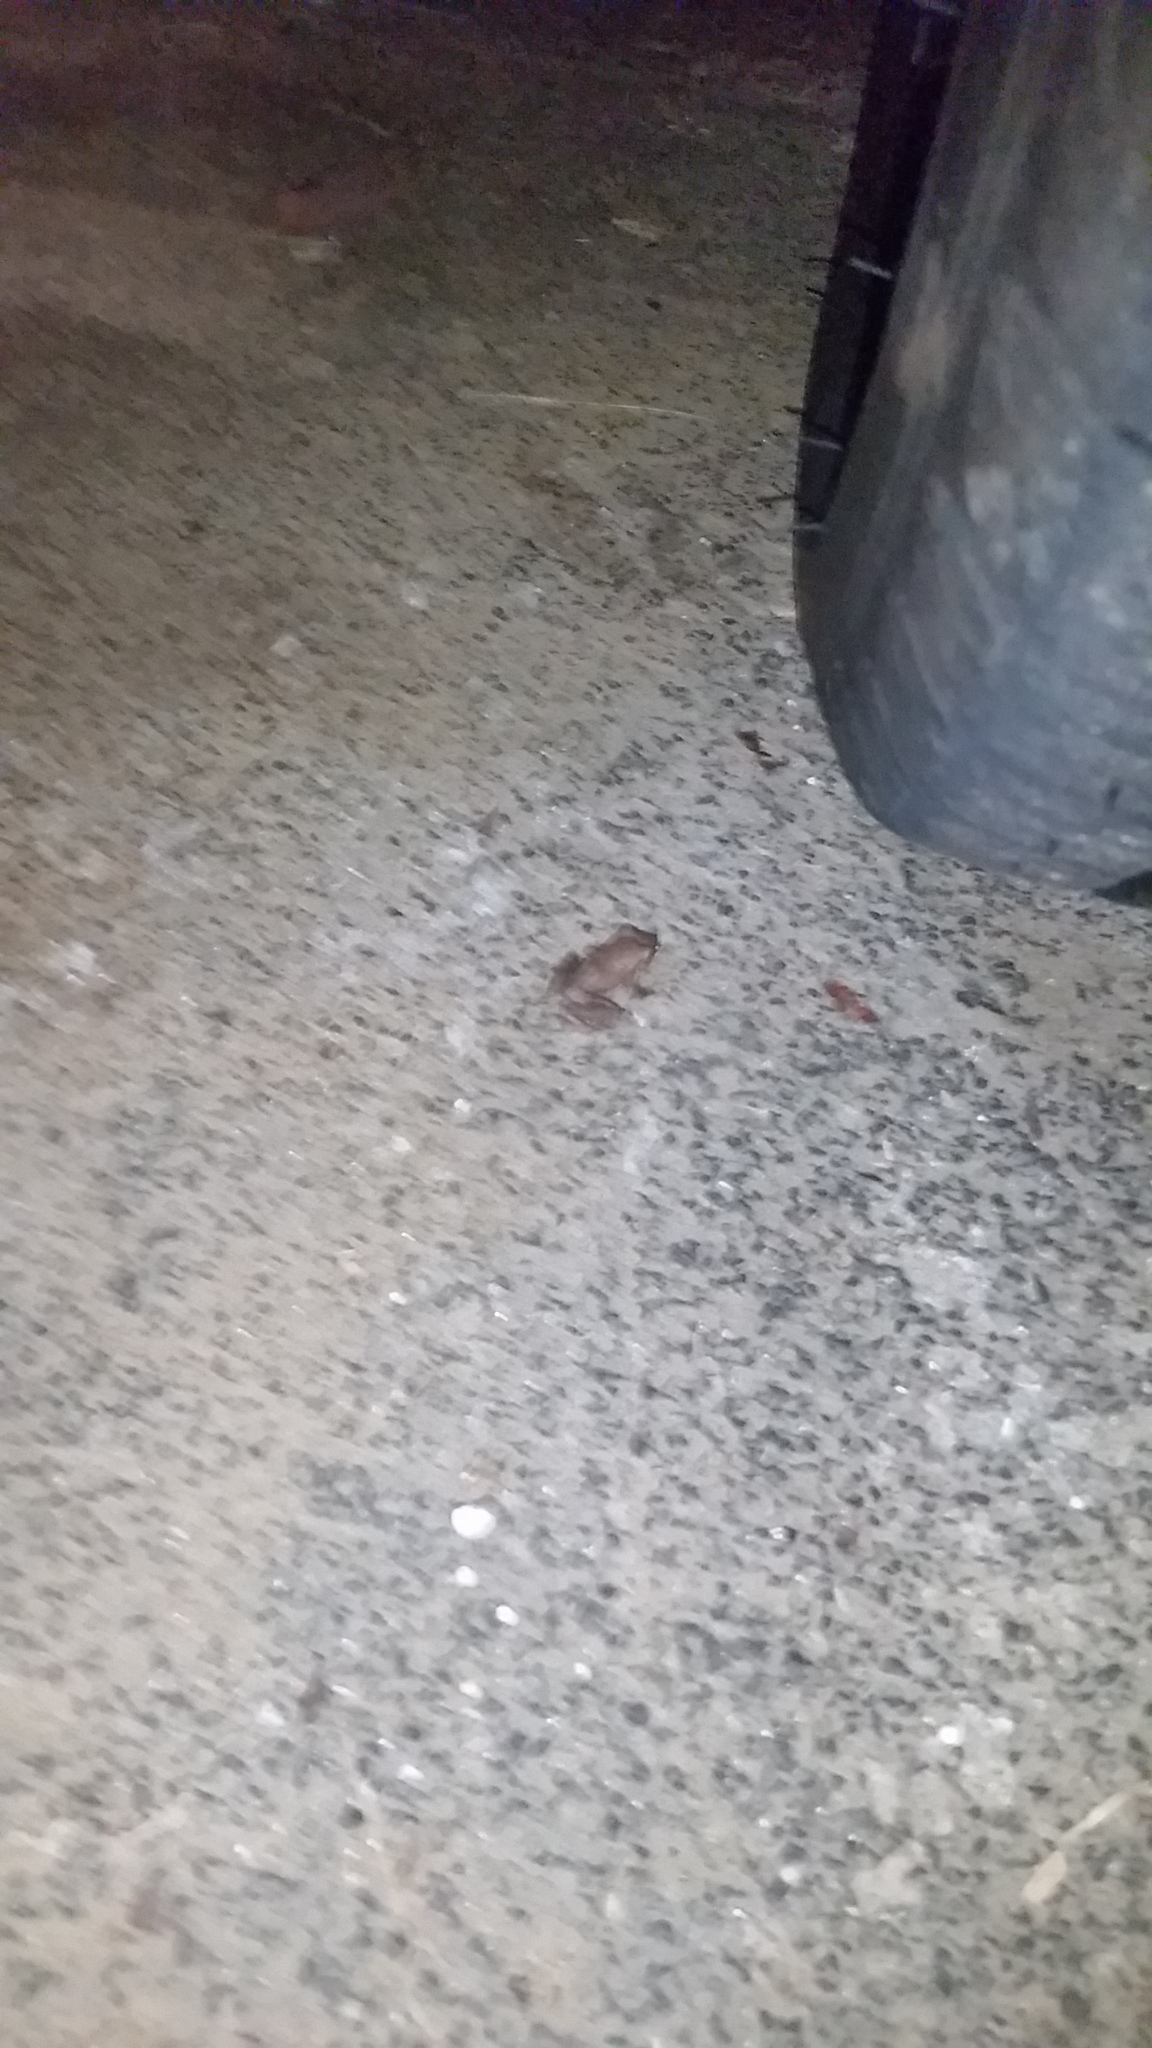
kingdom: Animalia
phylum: Chordata
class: Amphibia
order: Anura
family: Eleutherodactylidae
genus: Eleutherodactylus
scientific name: Eleutherodactylus coqui
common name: Coqui frog
